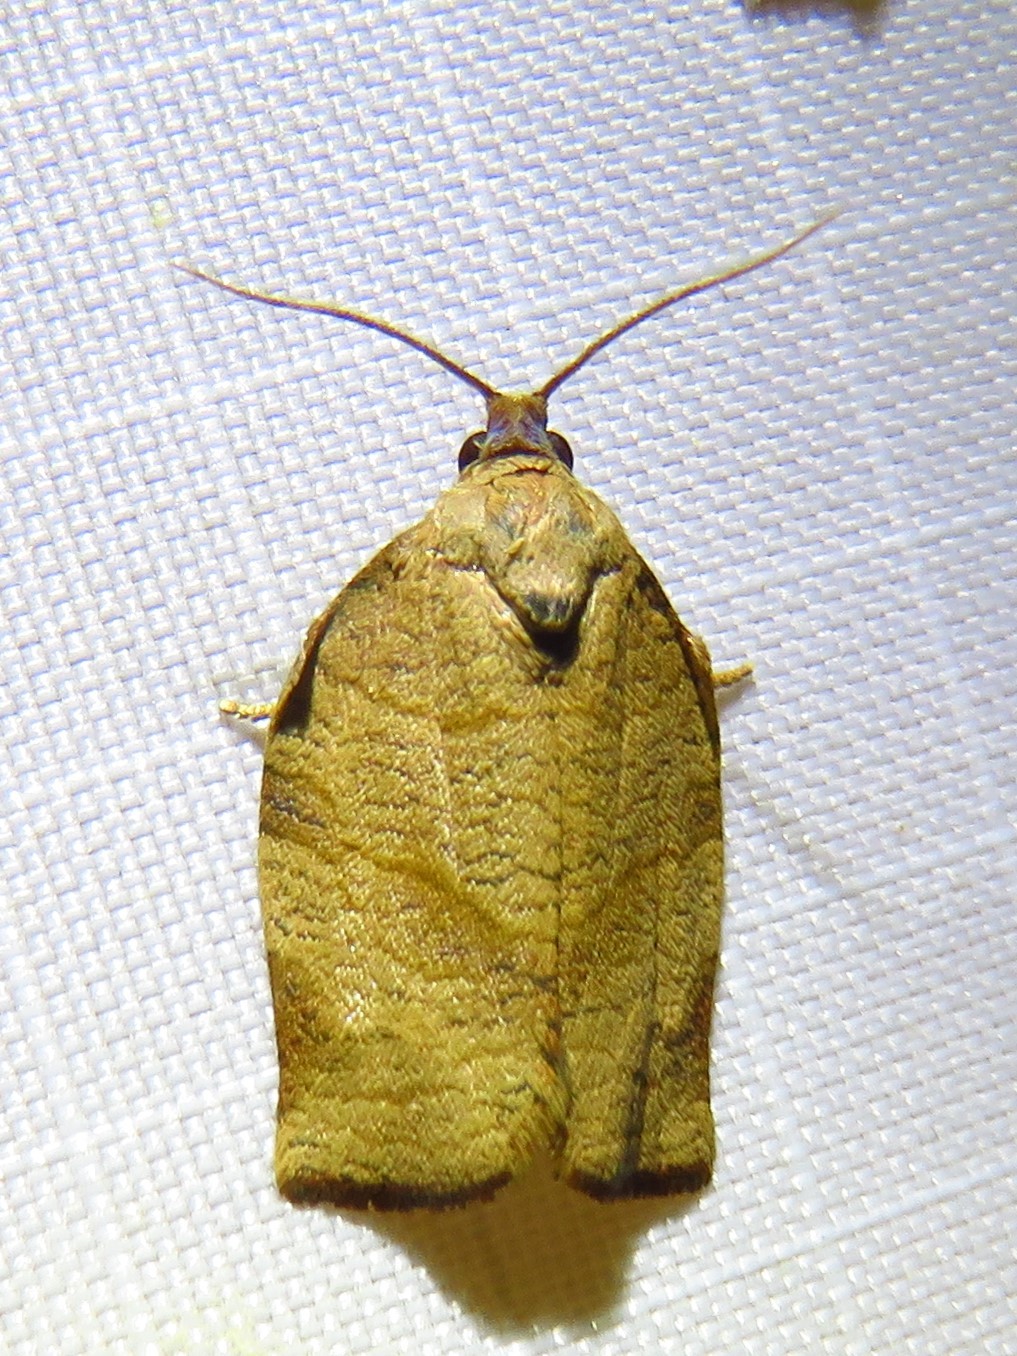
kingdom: Animalia
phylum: Arthropoda
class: Insecta
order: Lepidoptera
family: Tortricidae
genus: Choristoneura
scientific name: Choristoneura rosaceana
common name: Oblique-banded leafroller moth
